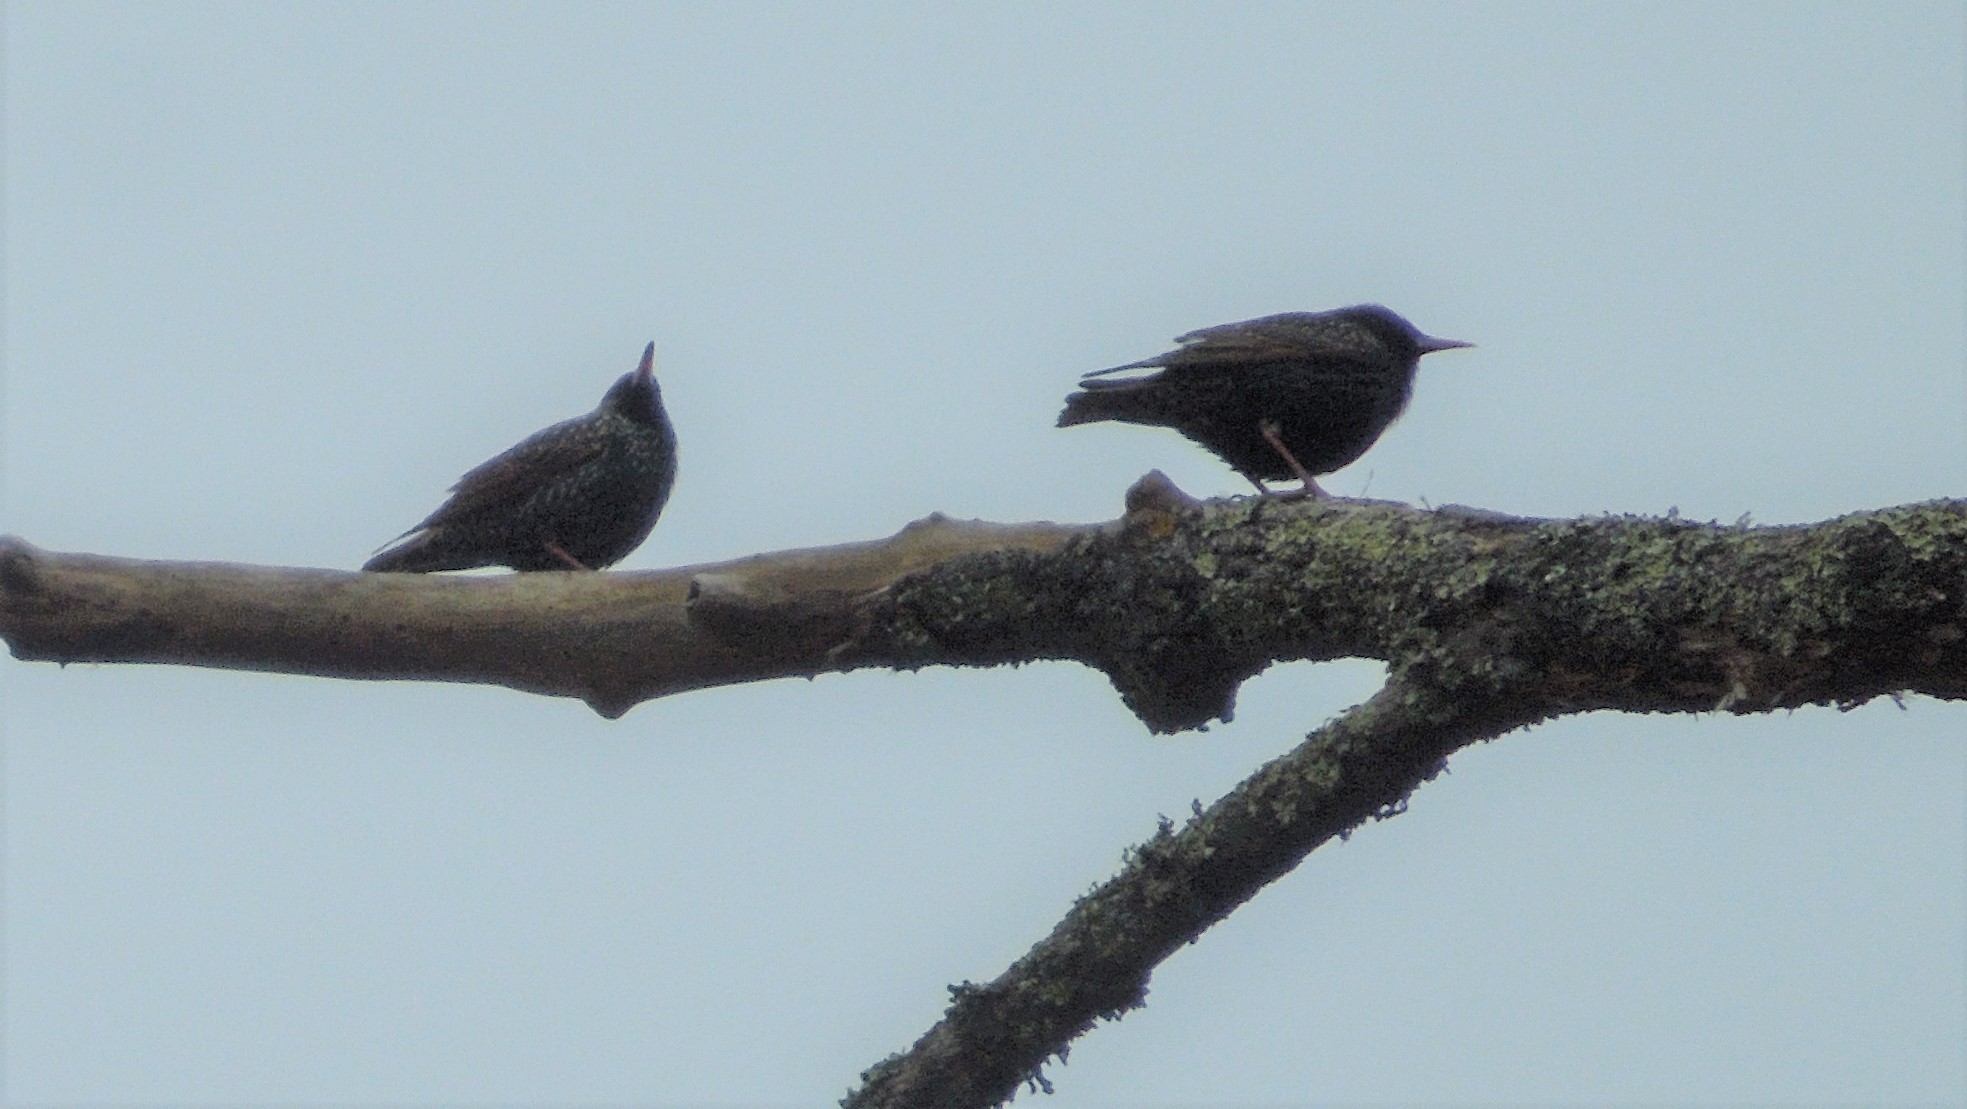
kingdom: Animalia
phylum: Chordata
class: Aves
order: Passeriformes
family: Sturnidae
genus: Sturnus
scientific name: Sturnus vulgaris
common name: Common starling
